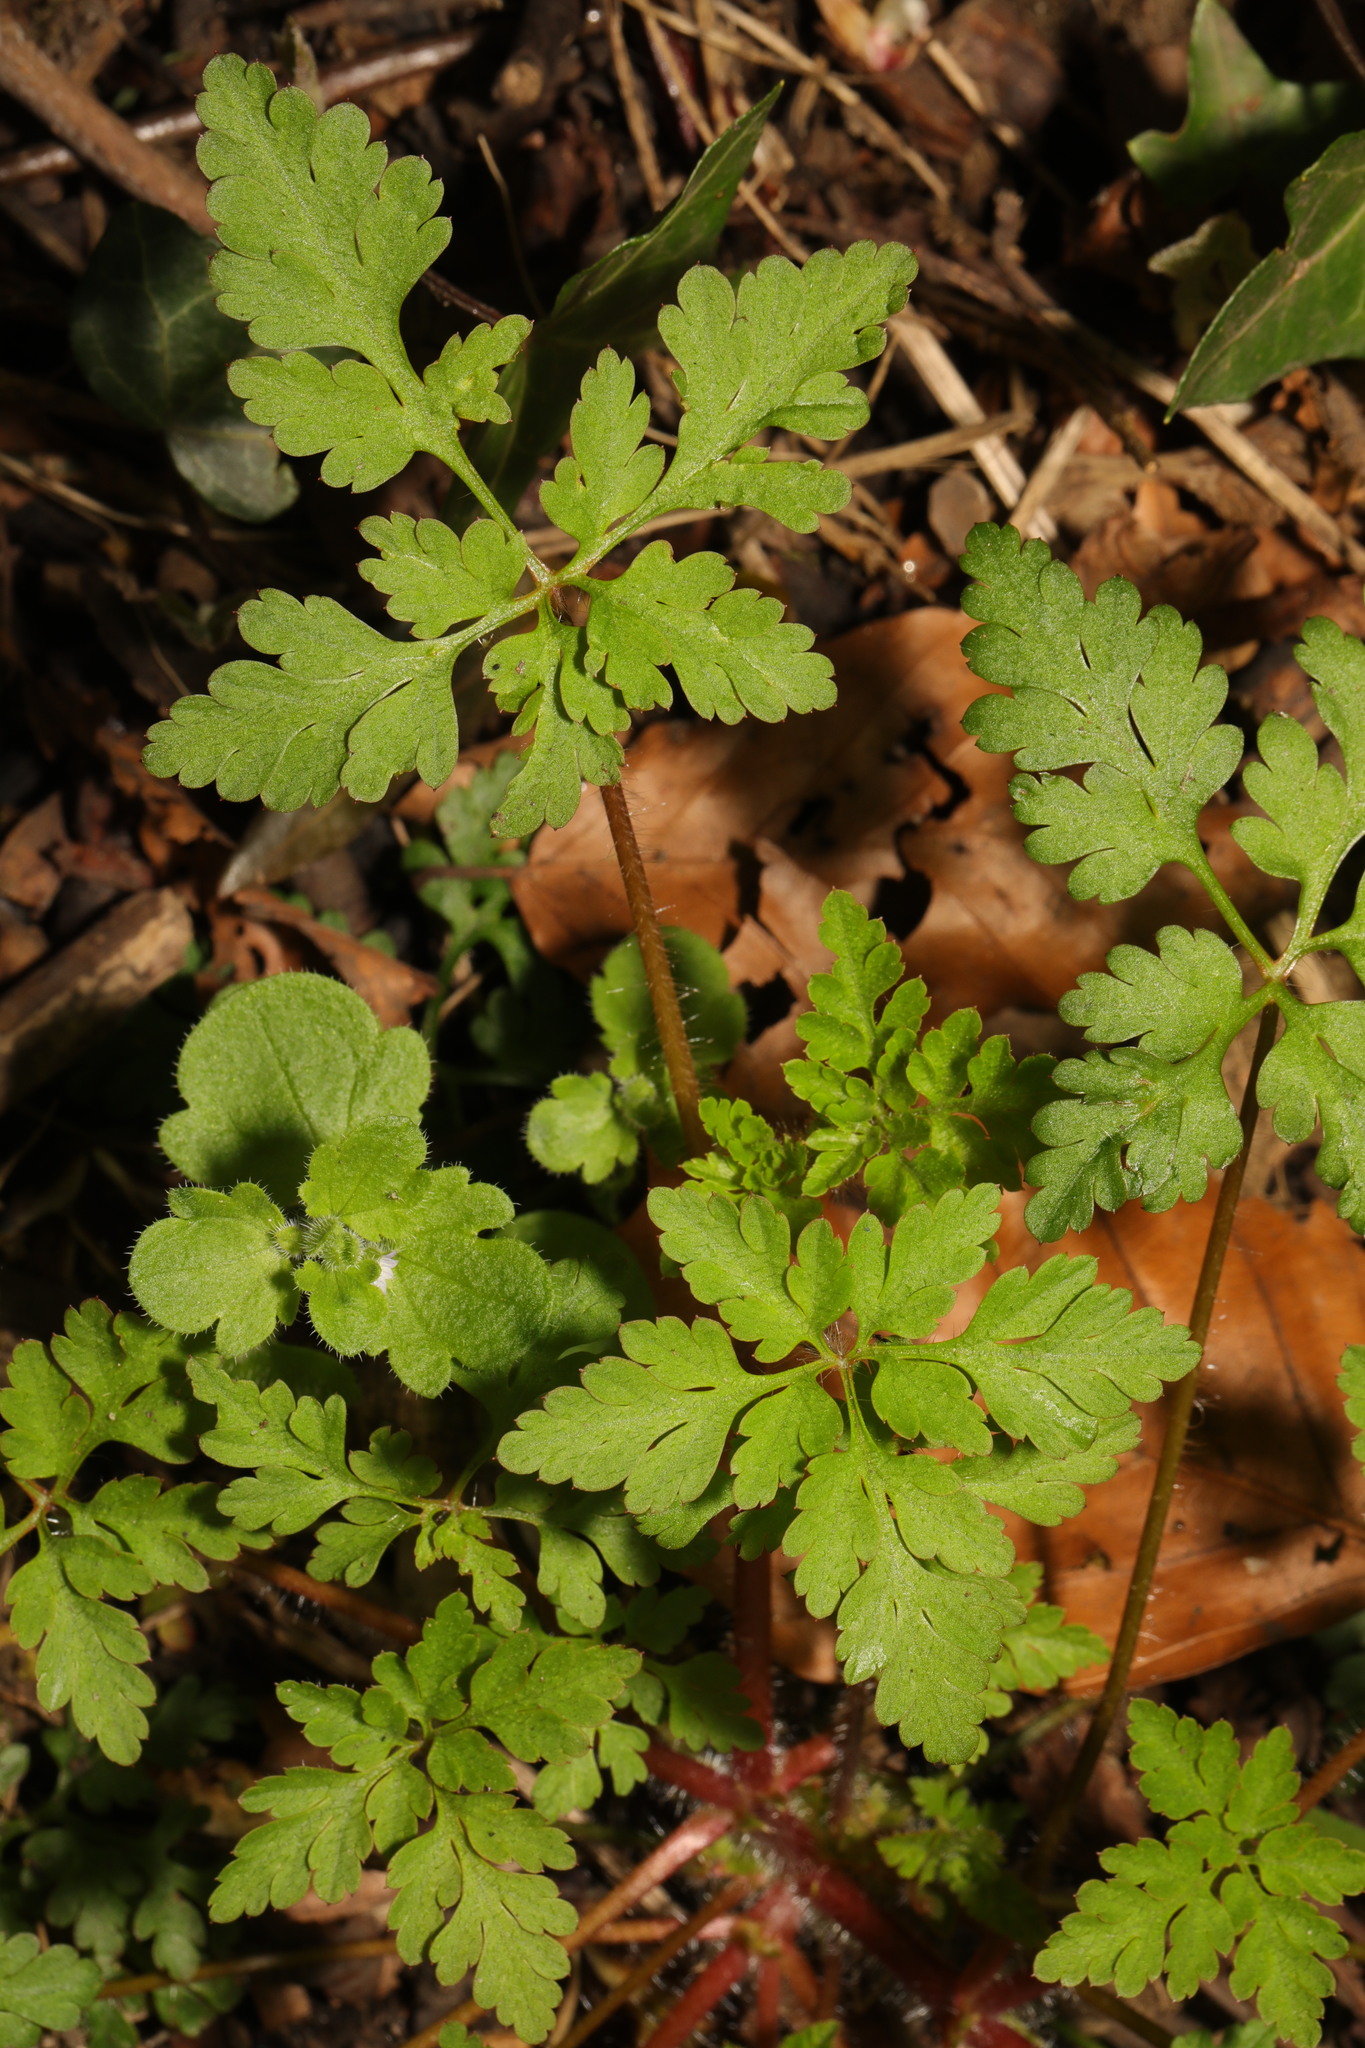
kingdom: Plantae
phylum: Tracheophyta
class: Magnoliopsida
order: Geraniales
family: Geraniaceae
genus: Geranium
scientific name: Geranium robertianum
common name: Herb-robert
